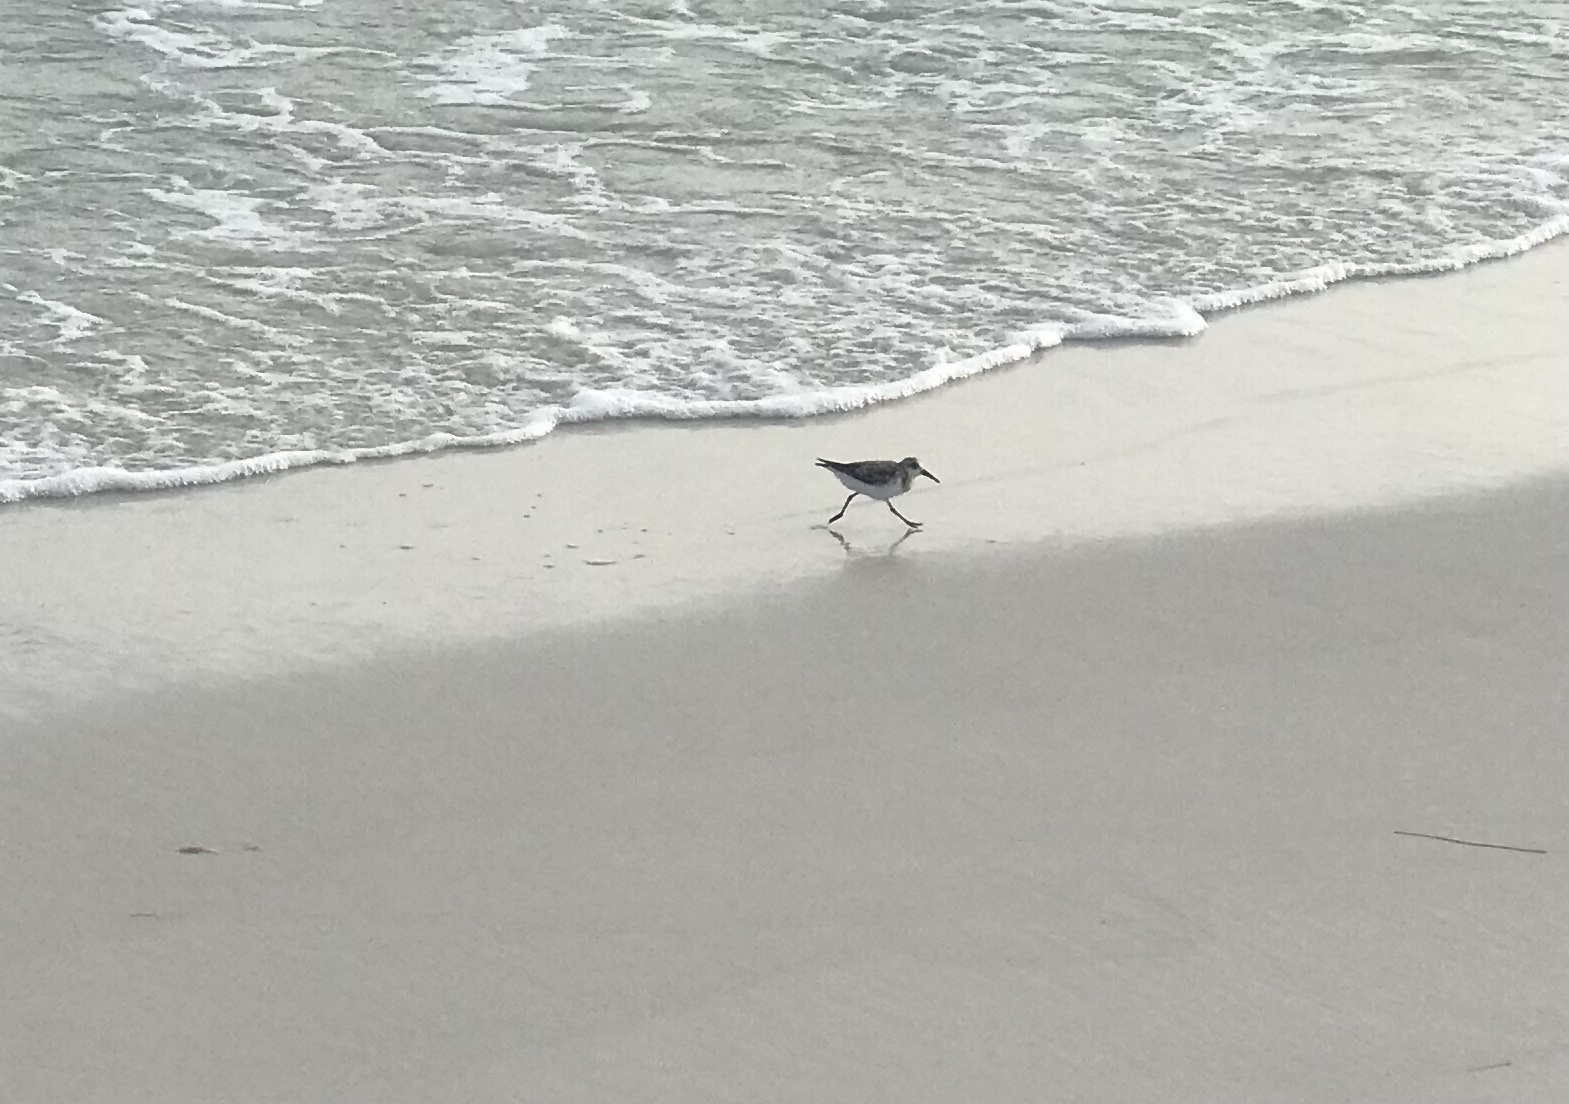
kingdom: Animalia
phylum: Chordata
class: Aves
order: Charadriiformes
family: Scolopacidae
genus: Calidris
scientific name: Calidris alba
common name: Sanderling
